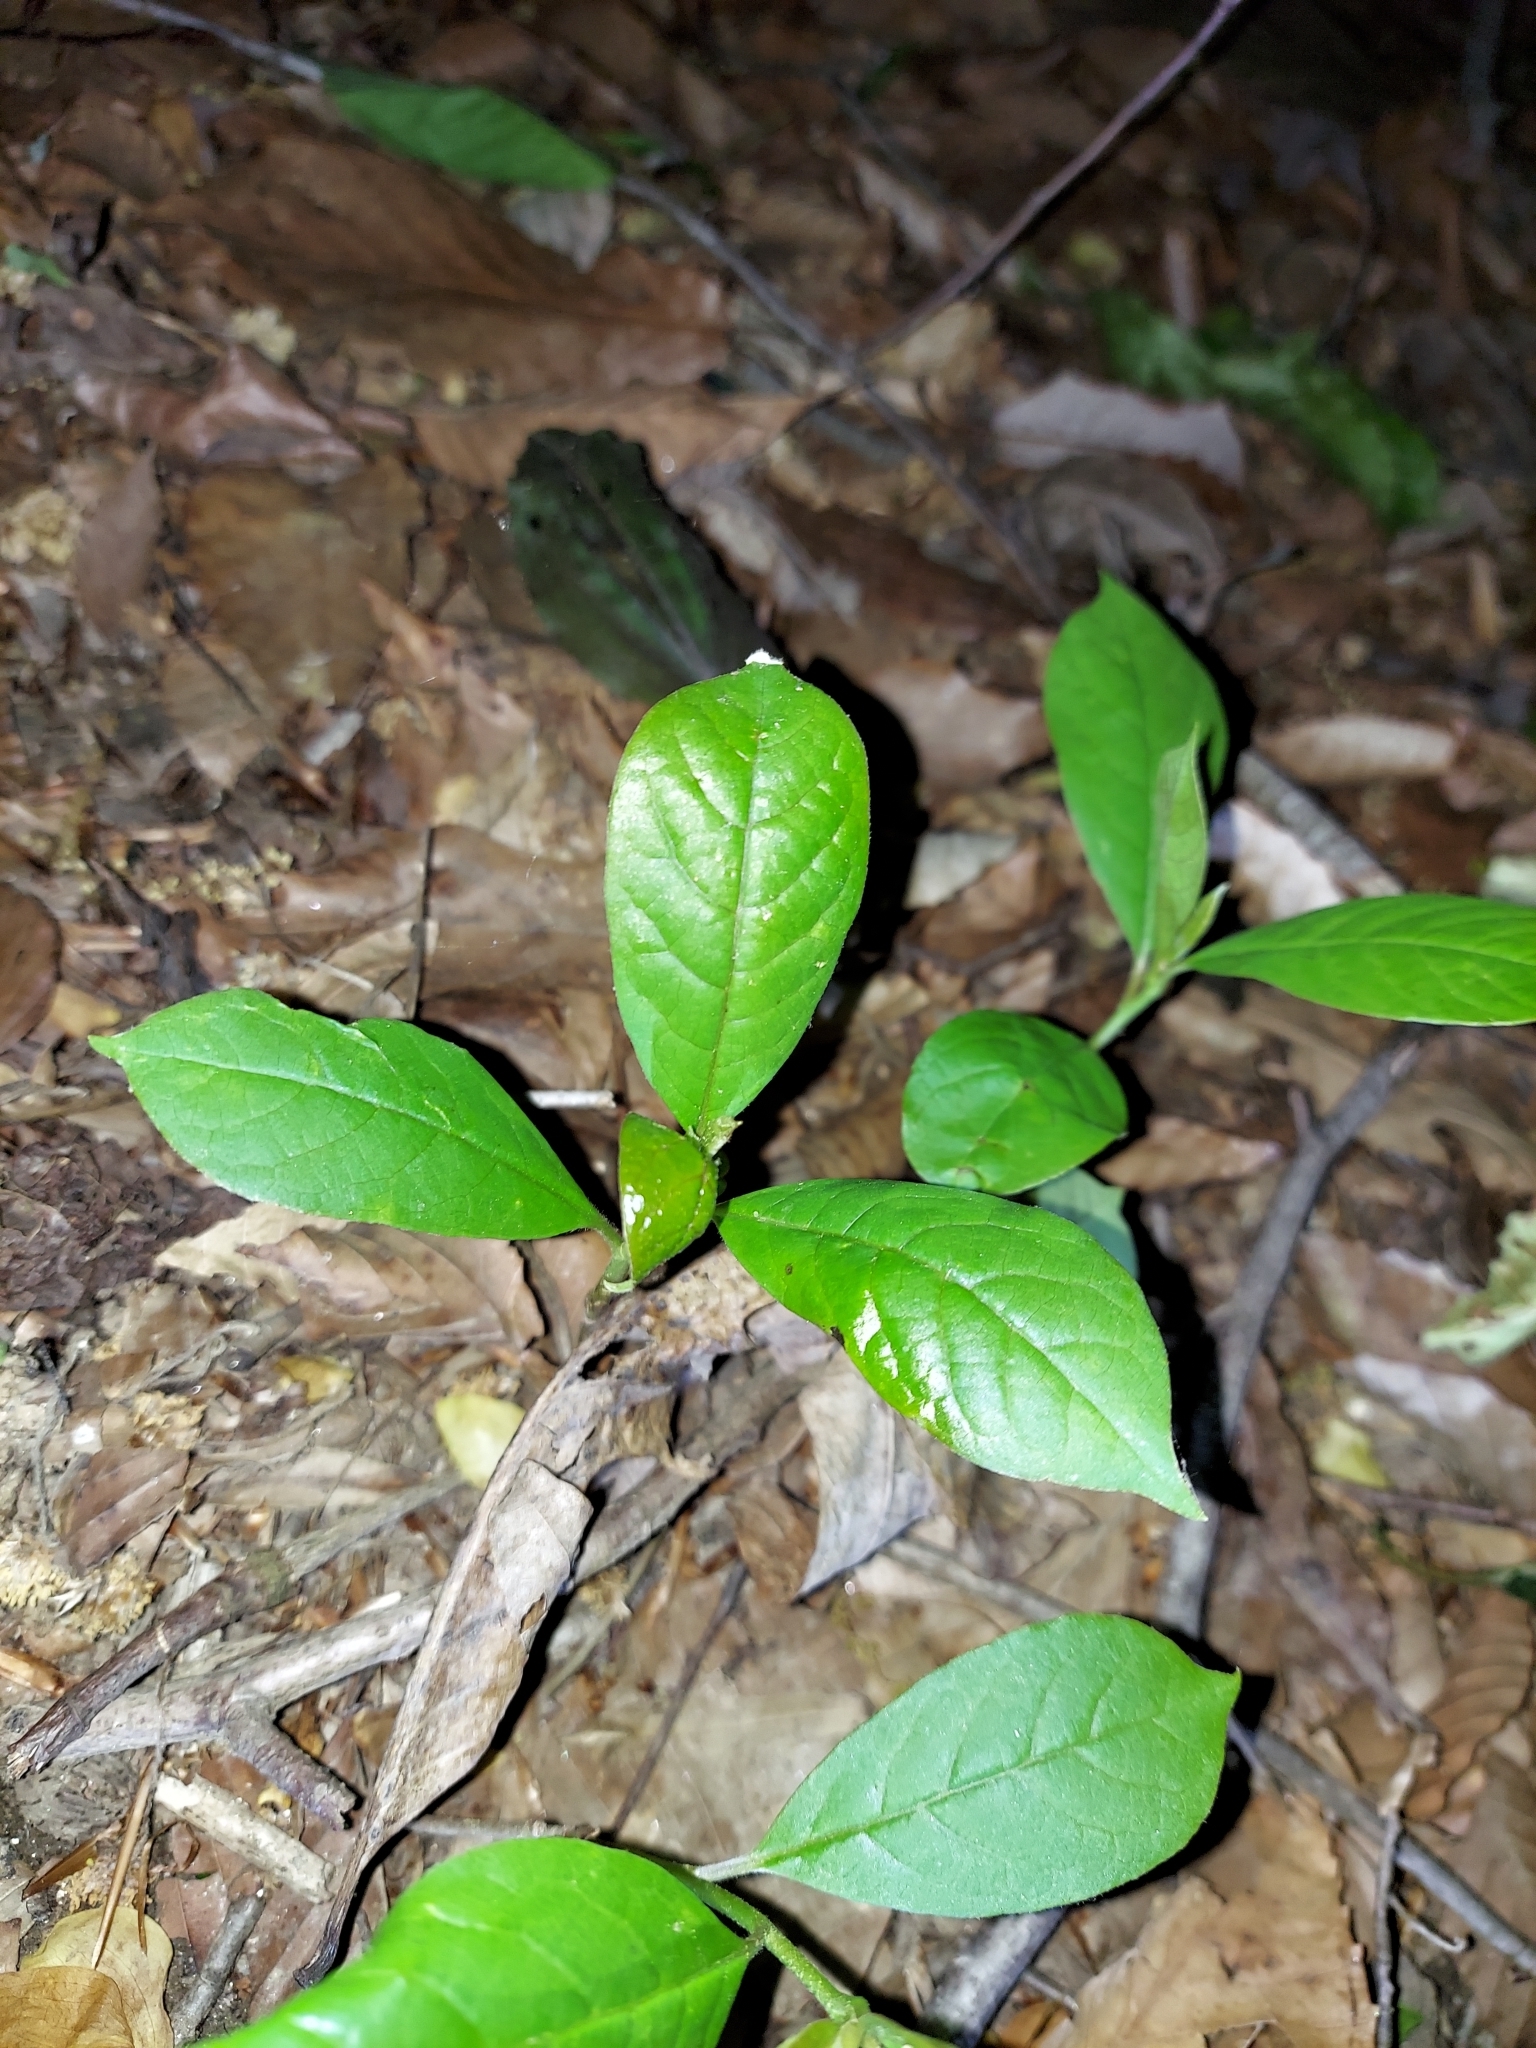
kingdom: Plantae
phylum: Tracheophyta
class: Magnoliopsida
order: Cornales
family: Nyssaceae
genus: Nyssa
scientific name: Nyssa sylvatica
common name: Black tupelo
